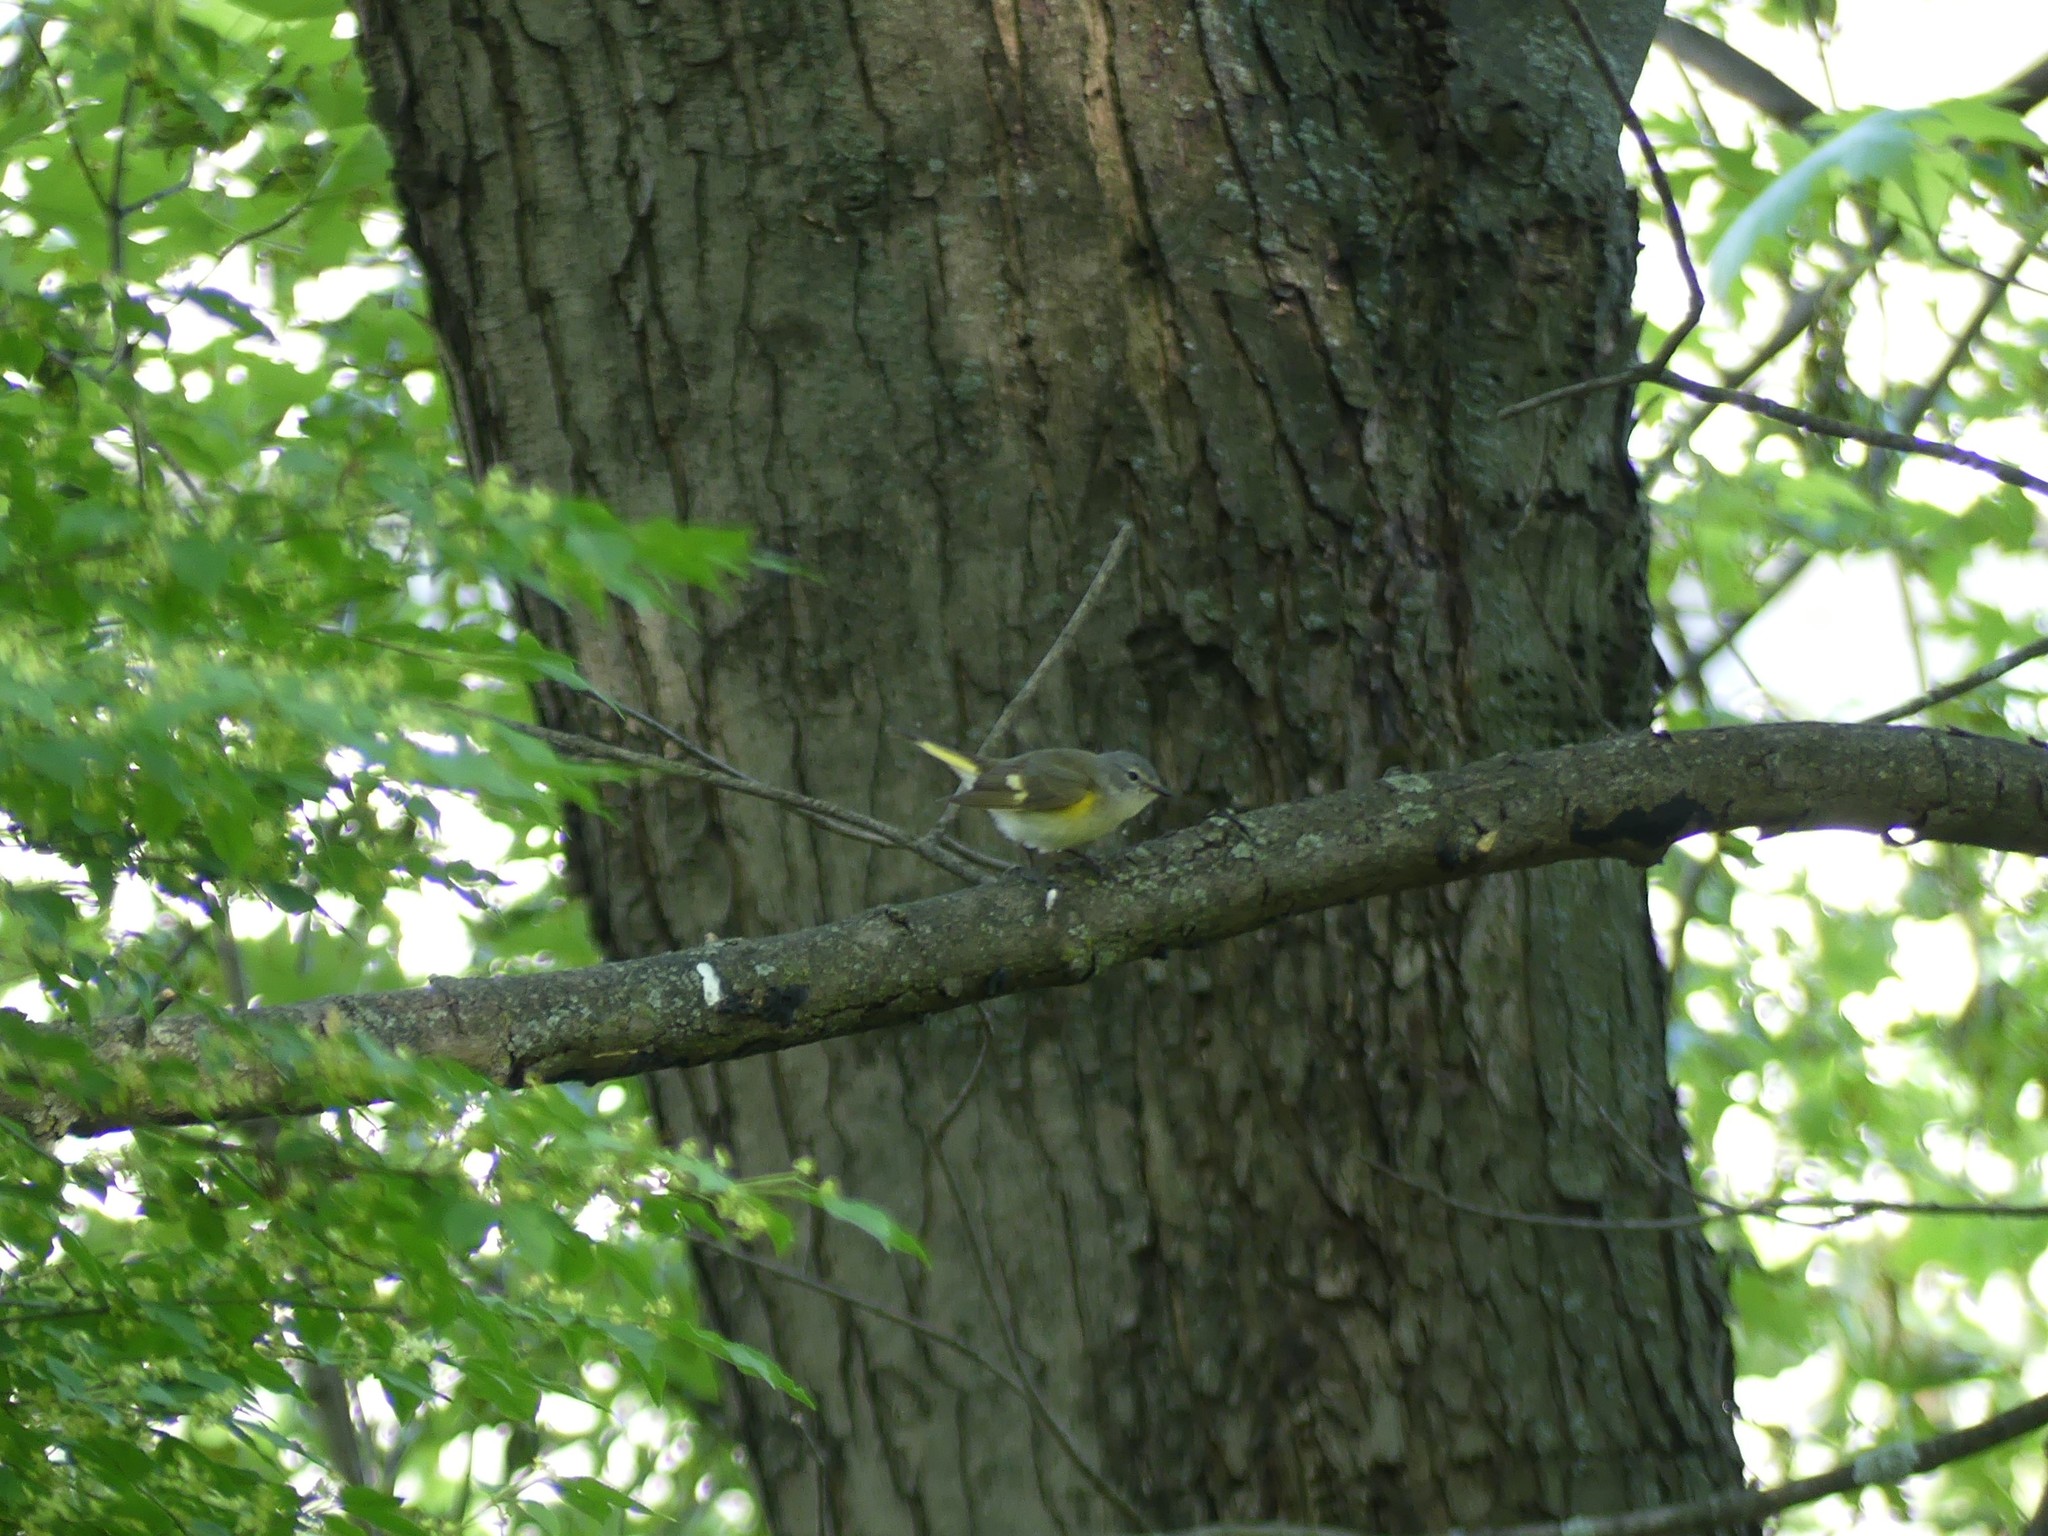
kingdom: Animalia
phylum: Chordata
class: Aves
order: Passeriformes
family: Parulidae
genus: Setophaga
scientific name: Setophaga ruticilla
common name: American redstart
